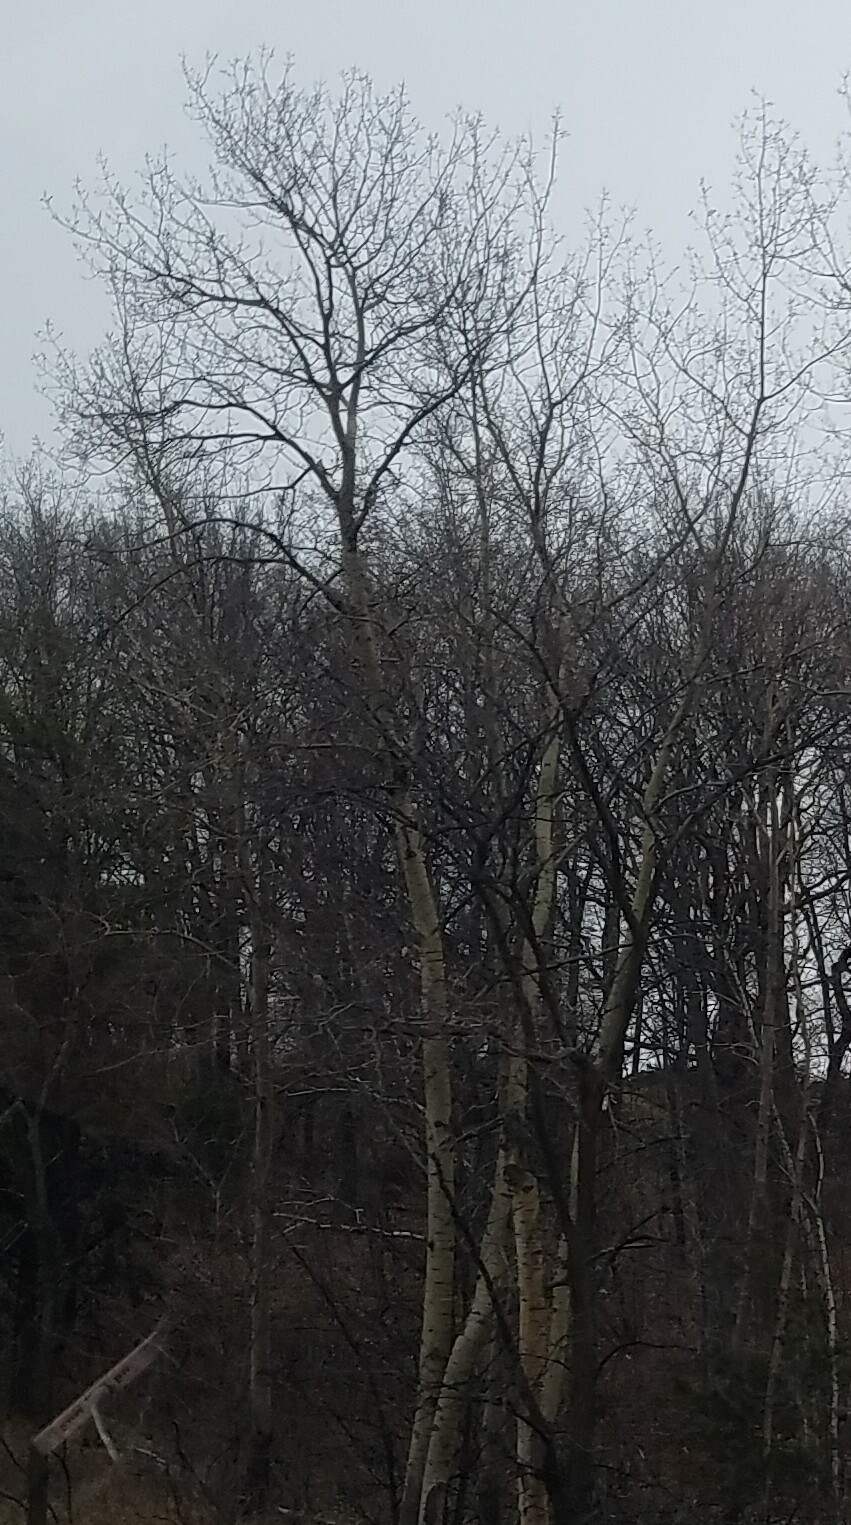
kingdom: Plantae
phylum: Tracheophyta
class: Magnoliopsida
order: Malpighiales
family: Salicaceae
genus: Populus
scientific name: Populus tremuloides
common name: Quaking aspen
